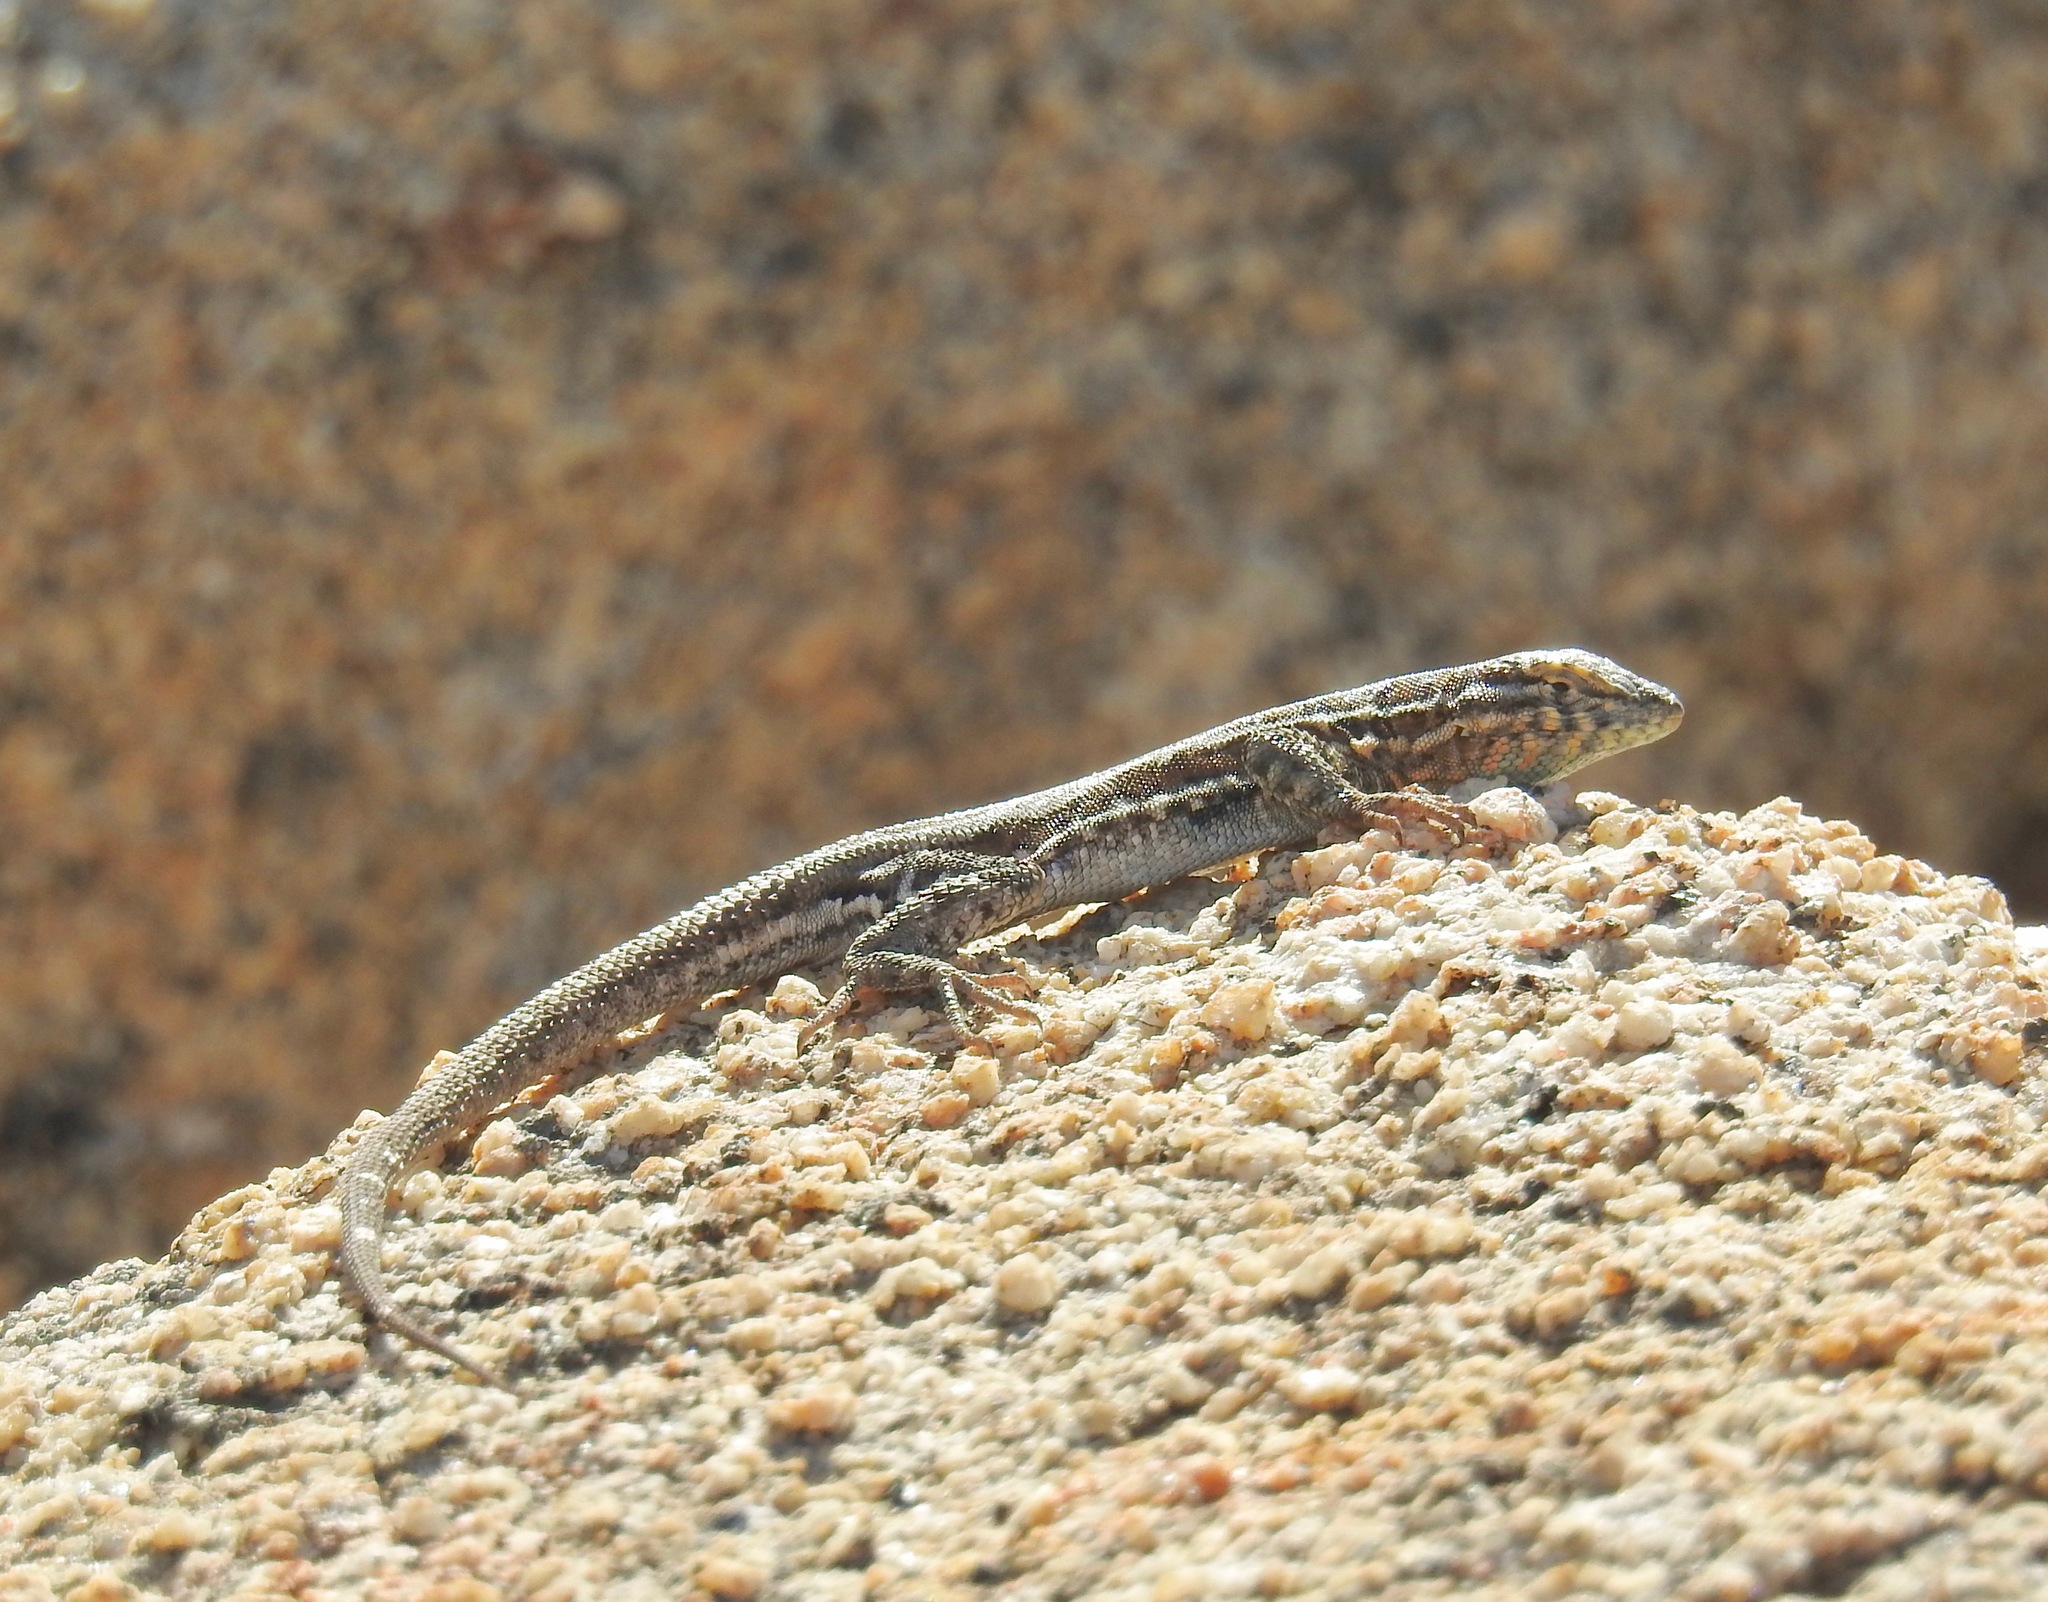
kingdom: Animalia
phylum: Chordata
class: Squamata
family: Phrynosomatidae
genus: Uta
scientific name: Uta stansburiana
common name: Side-blotched lizard
